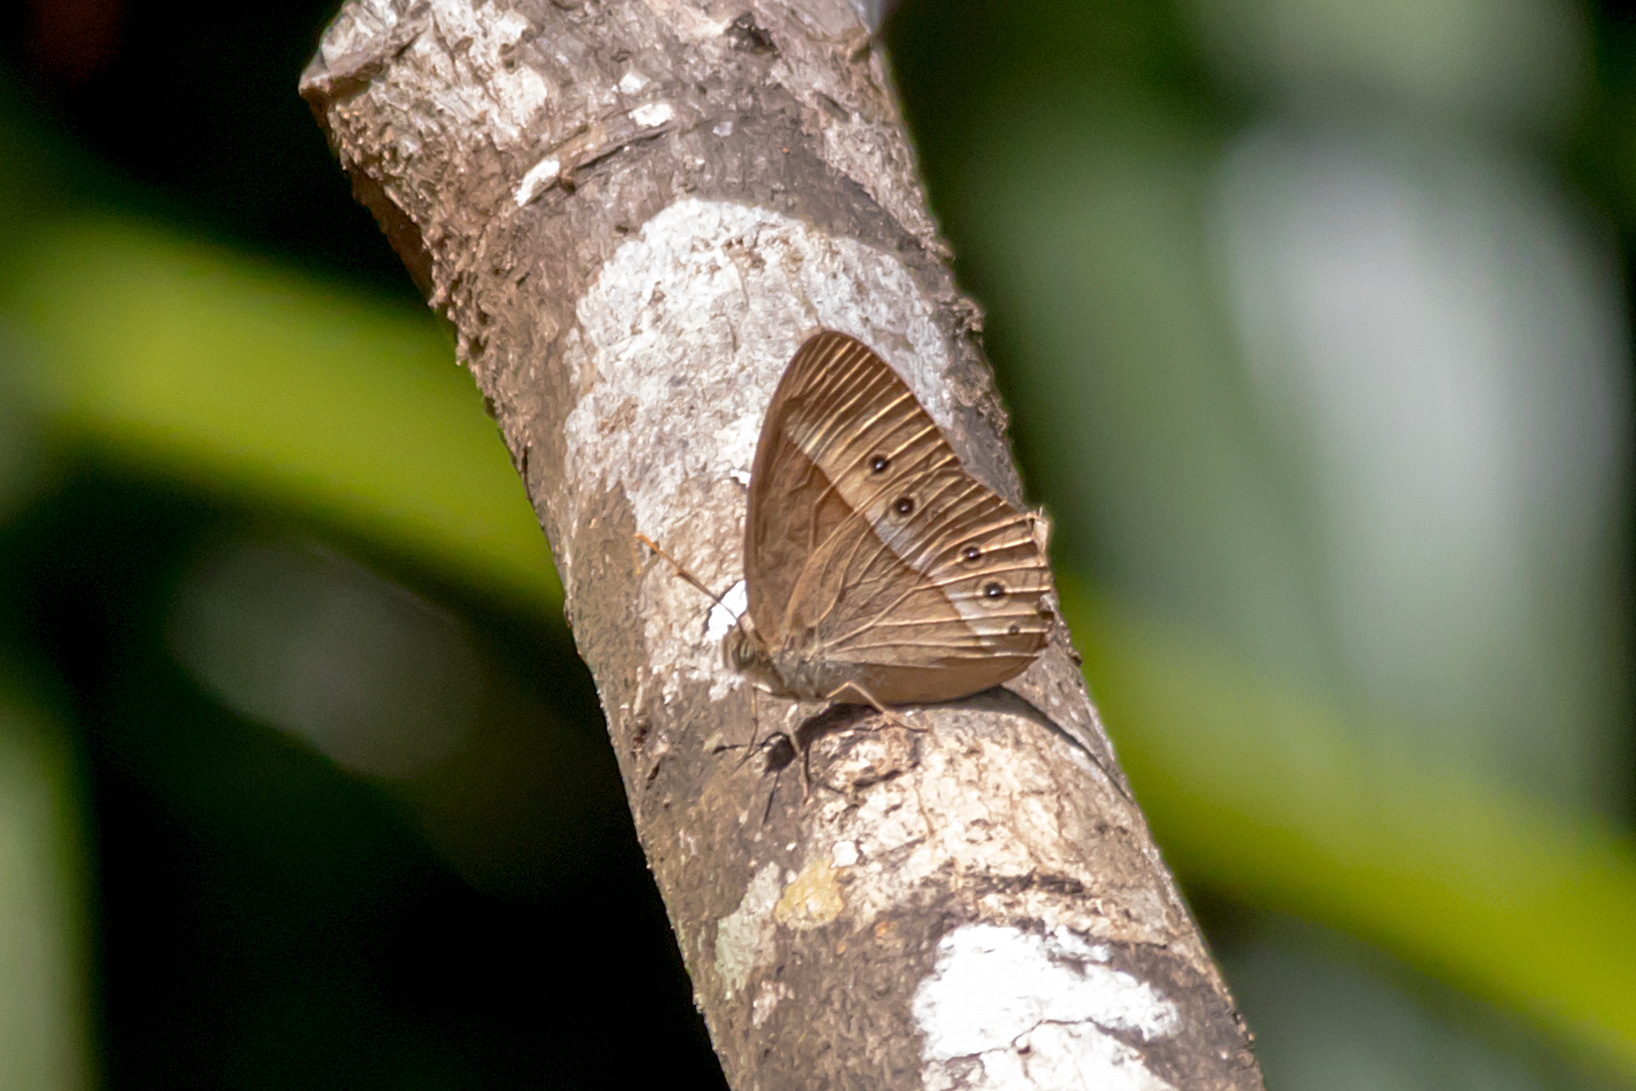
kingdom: Animalia
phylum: Arthropoda
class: Insecta
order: Lepidoptera
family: Nymphalidae
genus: Mycalesis
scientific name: Mycalesis terminus
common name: Orange bushbrown
